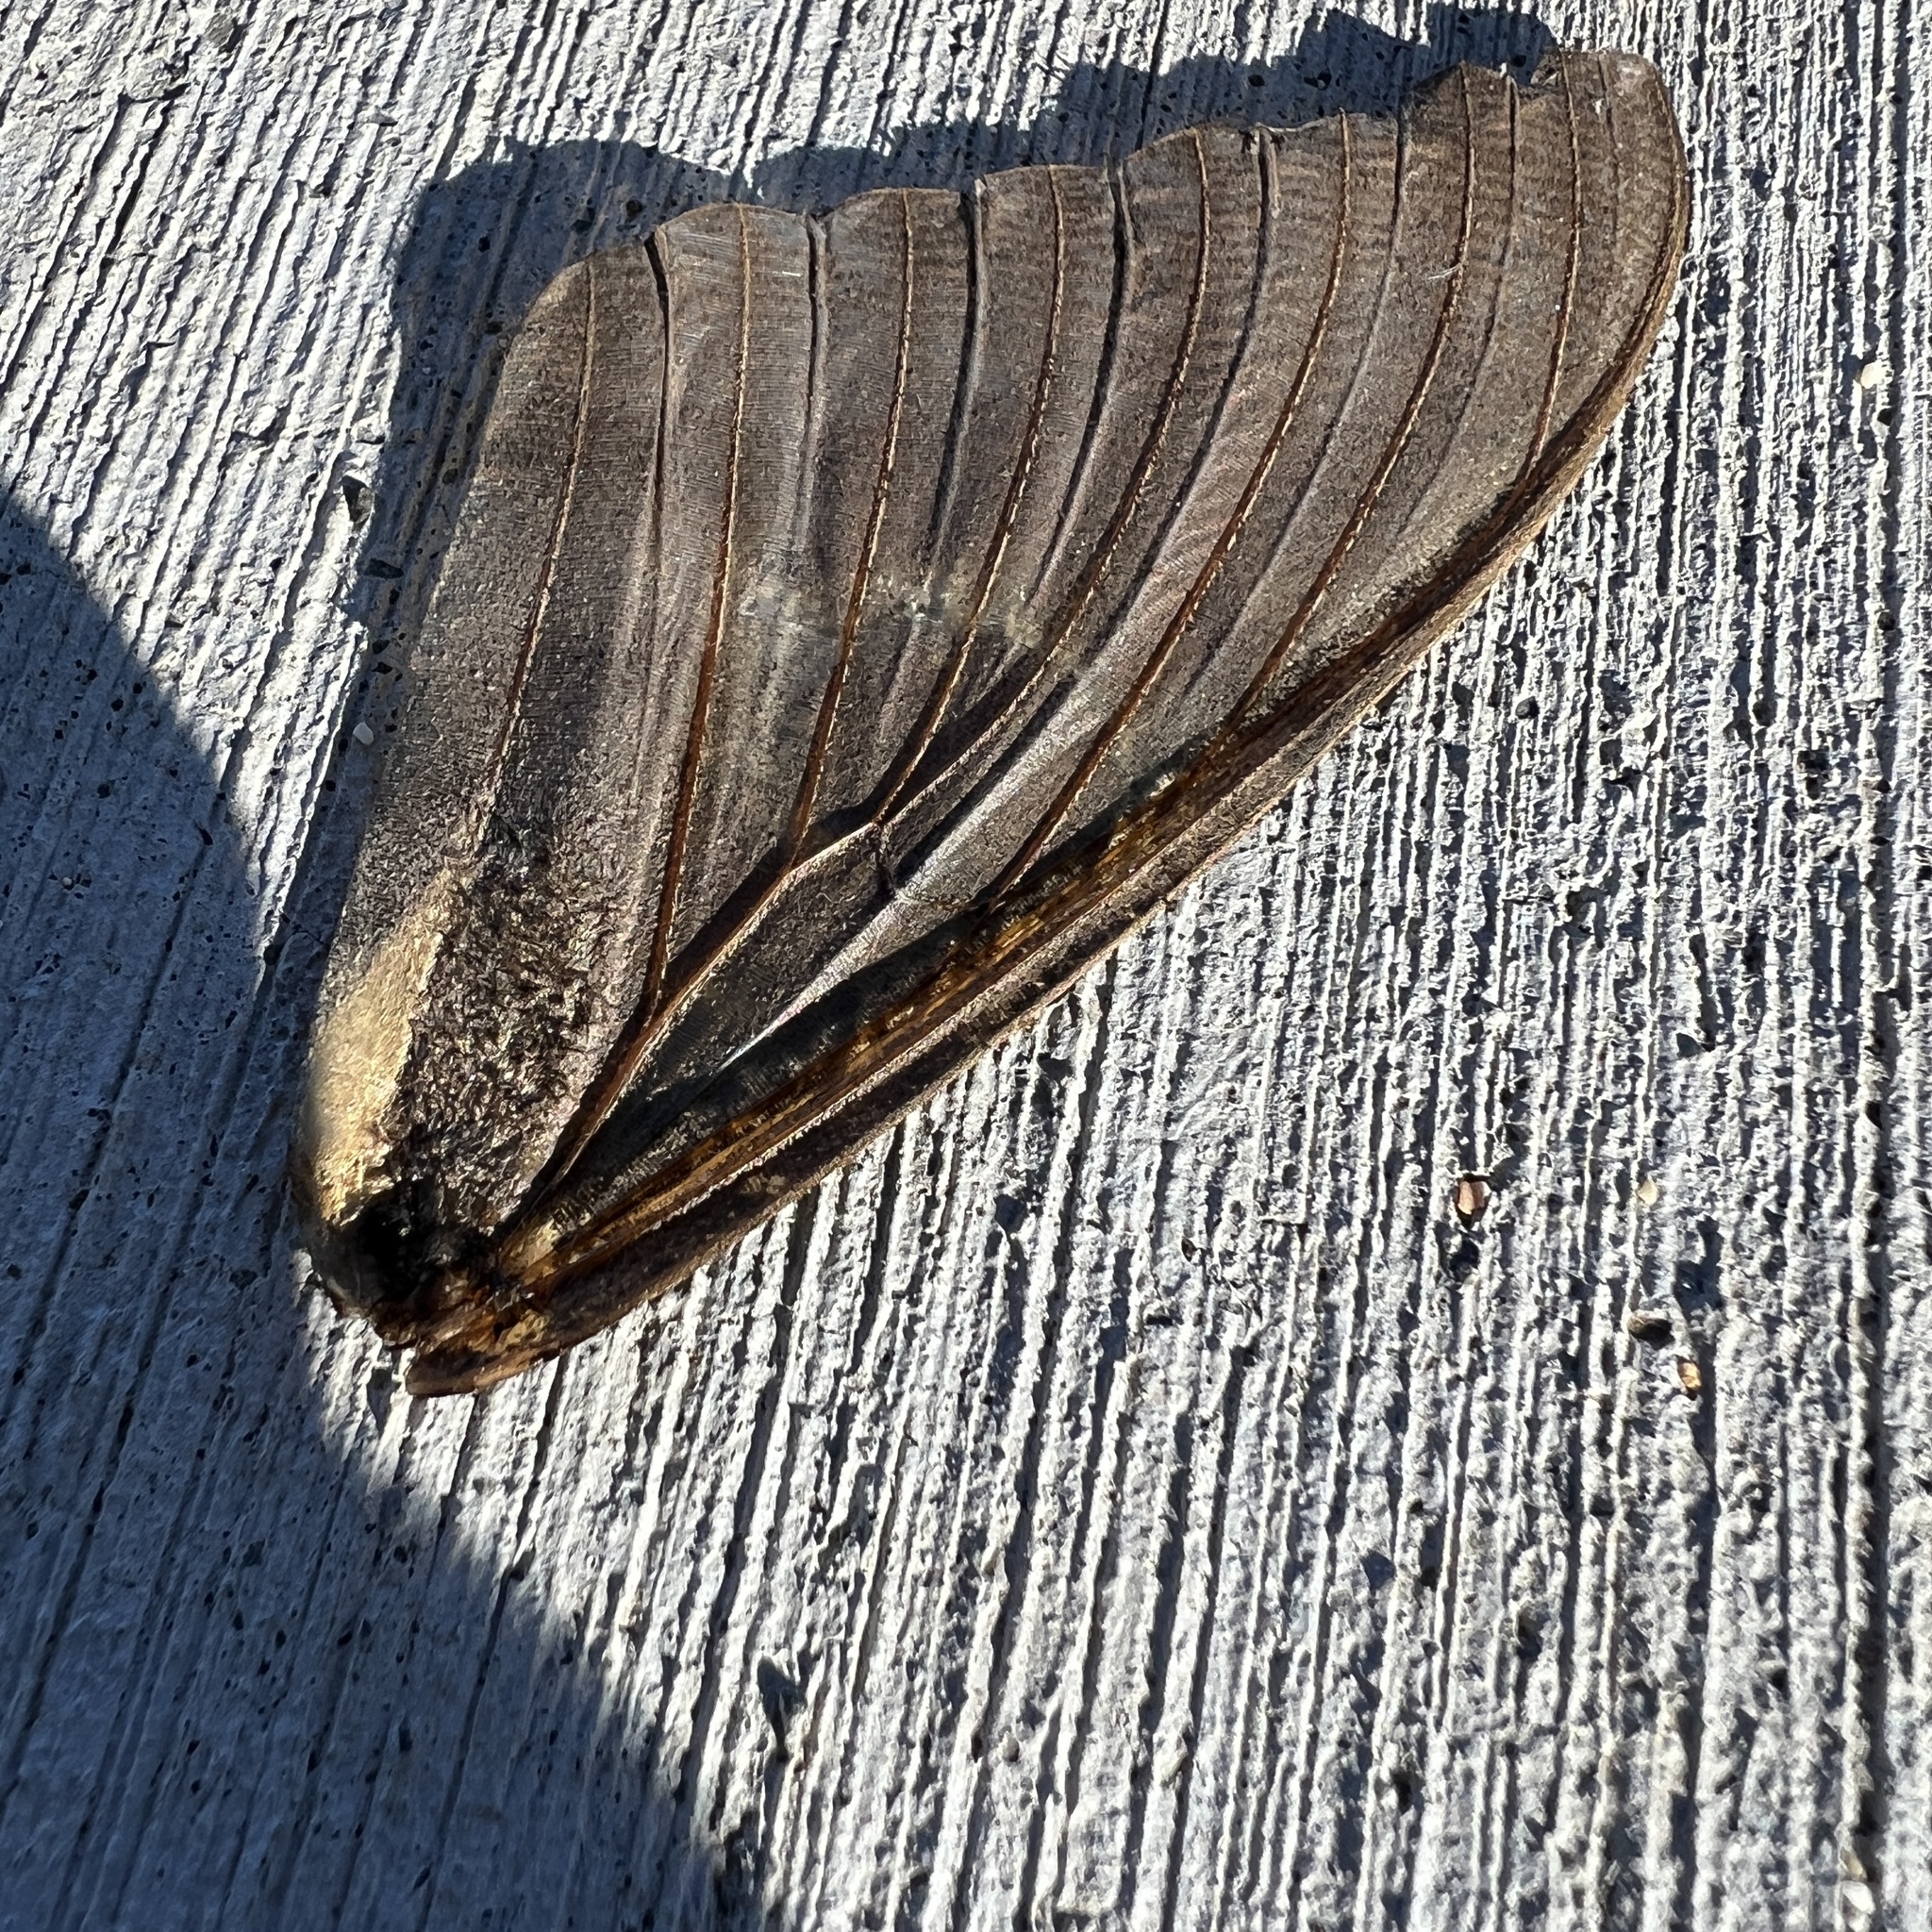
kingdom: Animalia
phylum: Arthropoda
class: Insecta
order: Lepidoptera
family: Erebidae
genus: Ascalapha
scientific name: Ascalapha odorata
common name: Black witch
